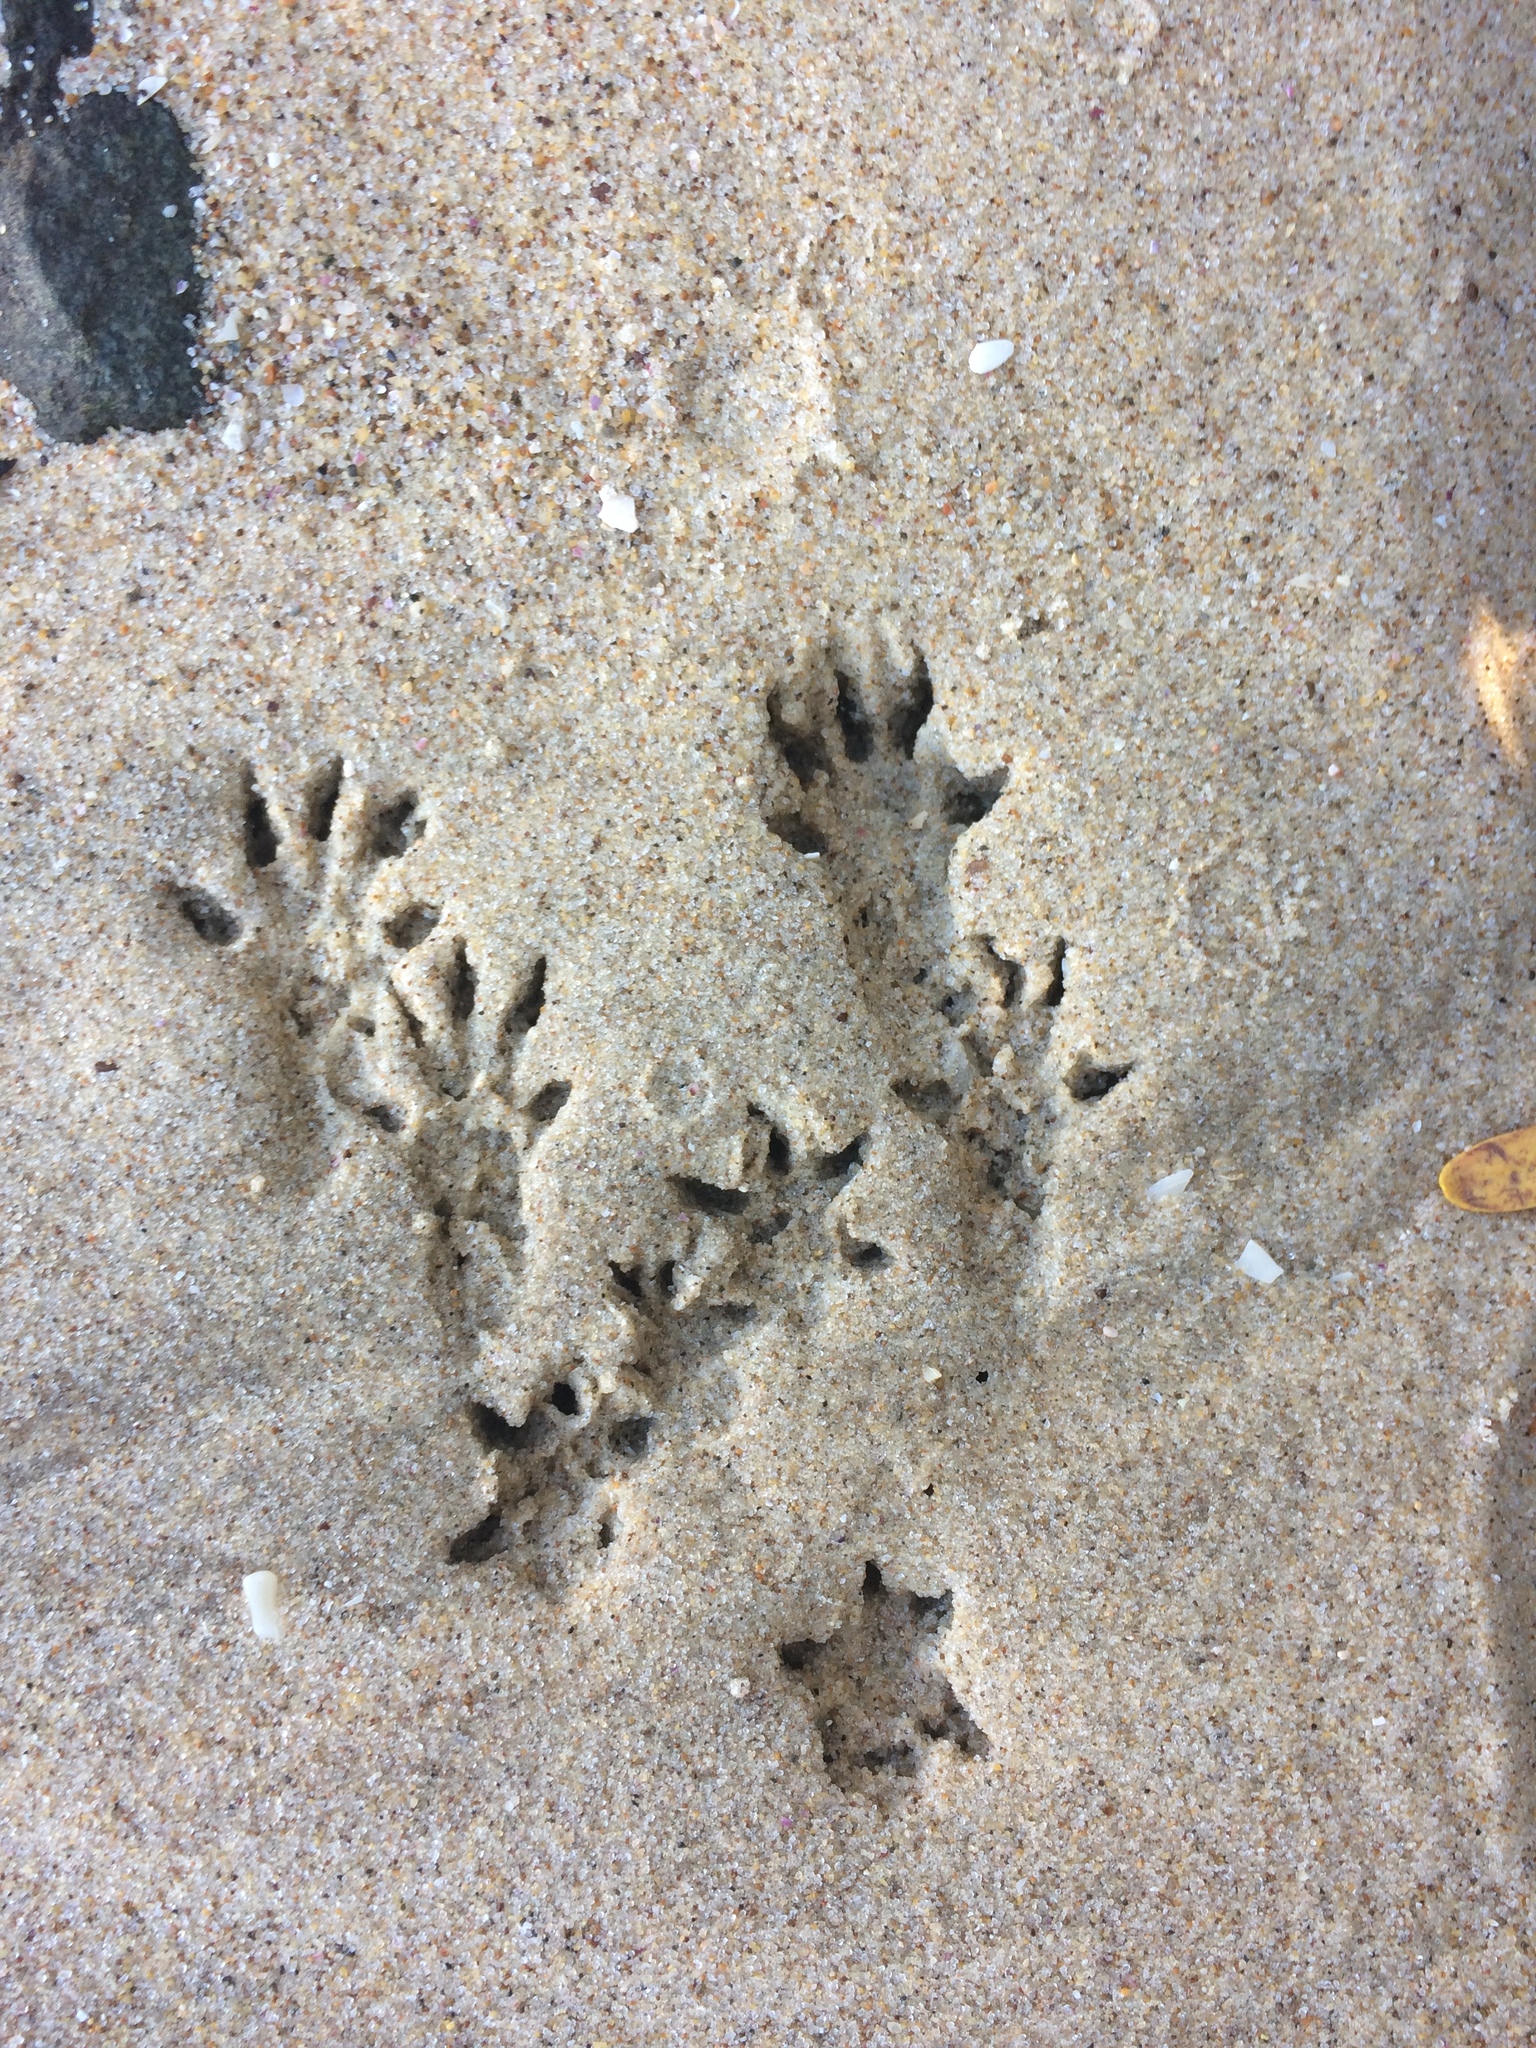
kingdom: Animalia
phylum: Chordata
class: Mammalia
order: Rodentia
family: Muridae
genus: Hydromys
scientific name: Hydromys chrysogaster
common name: Common water rat
